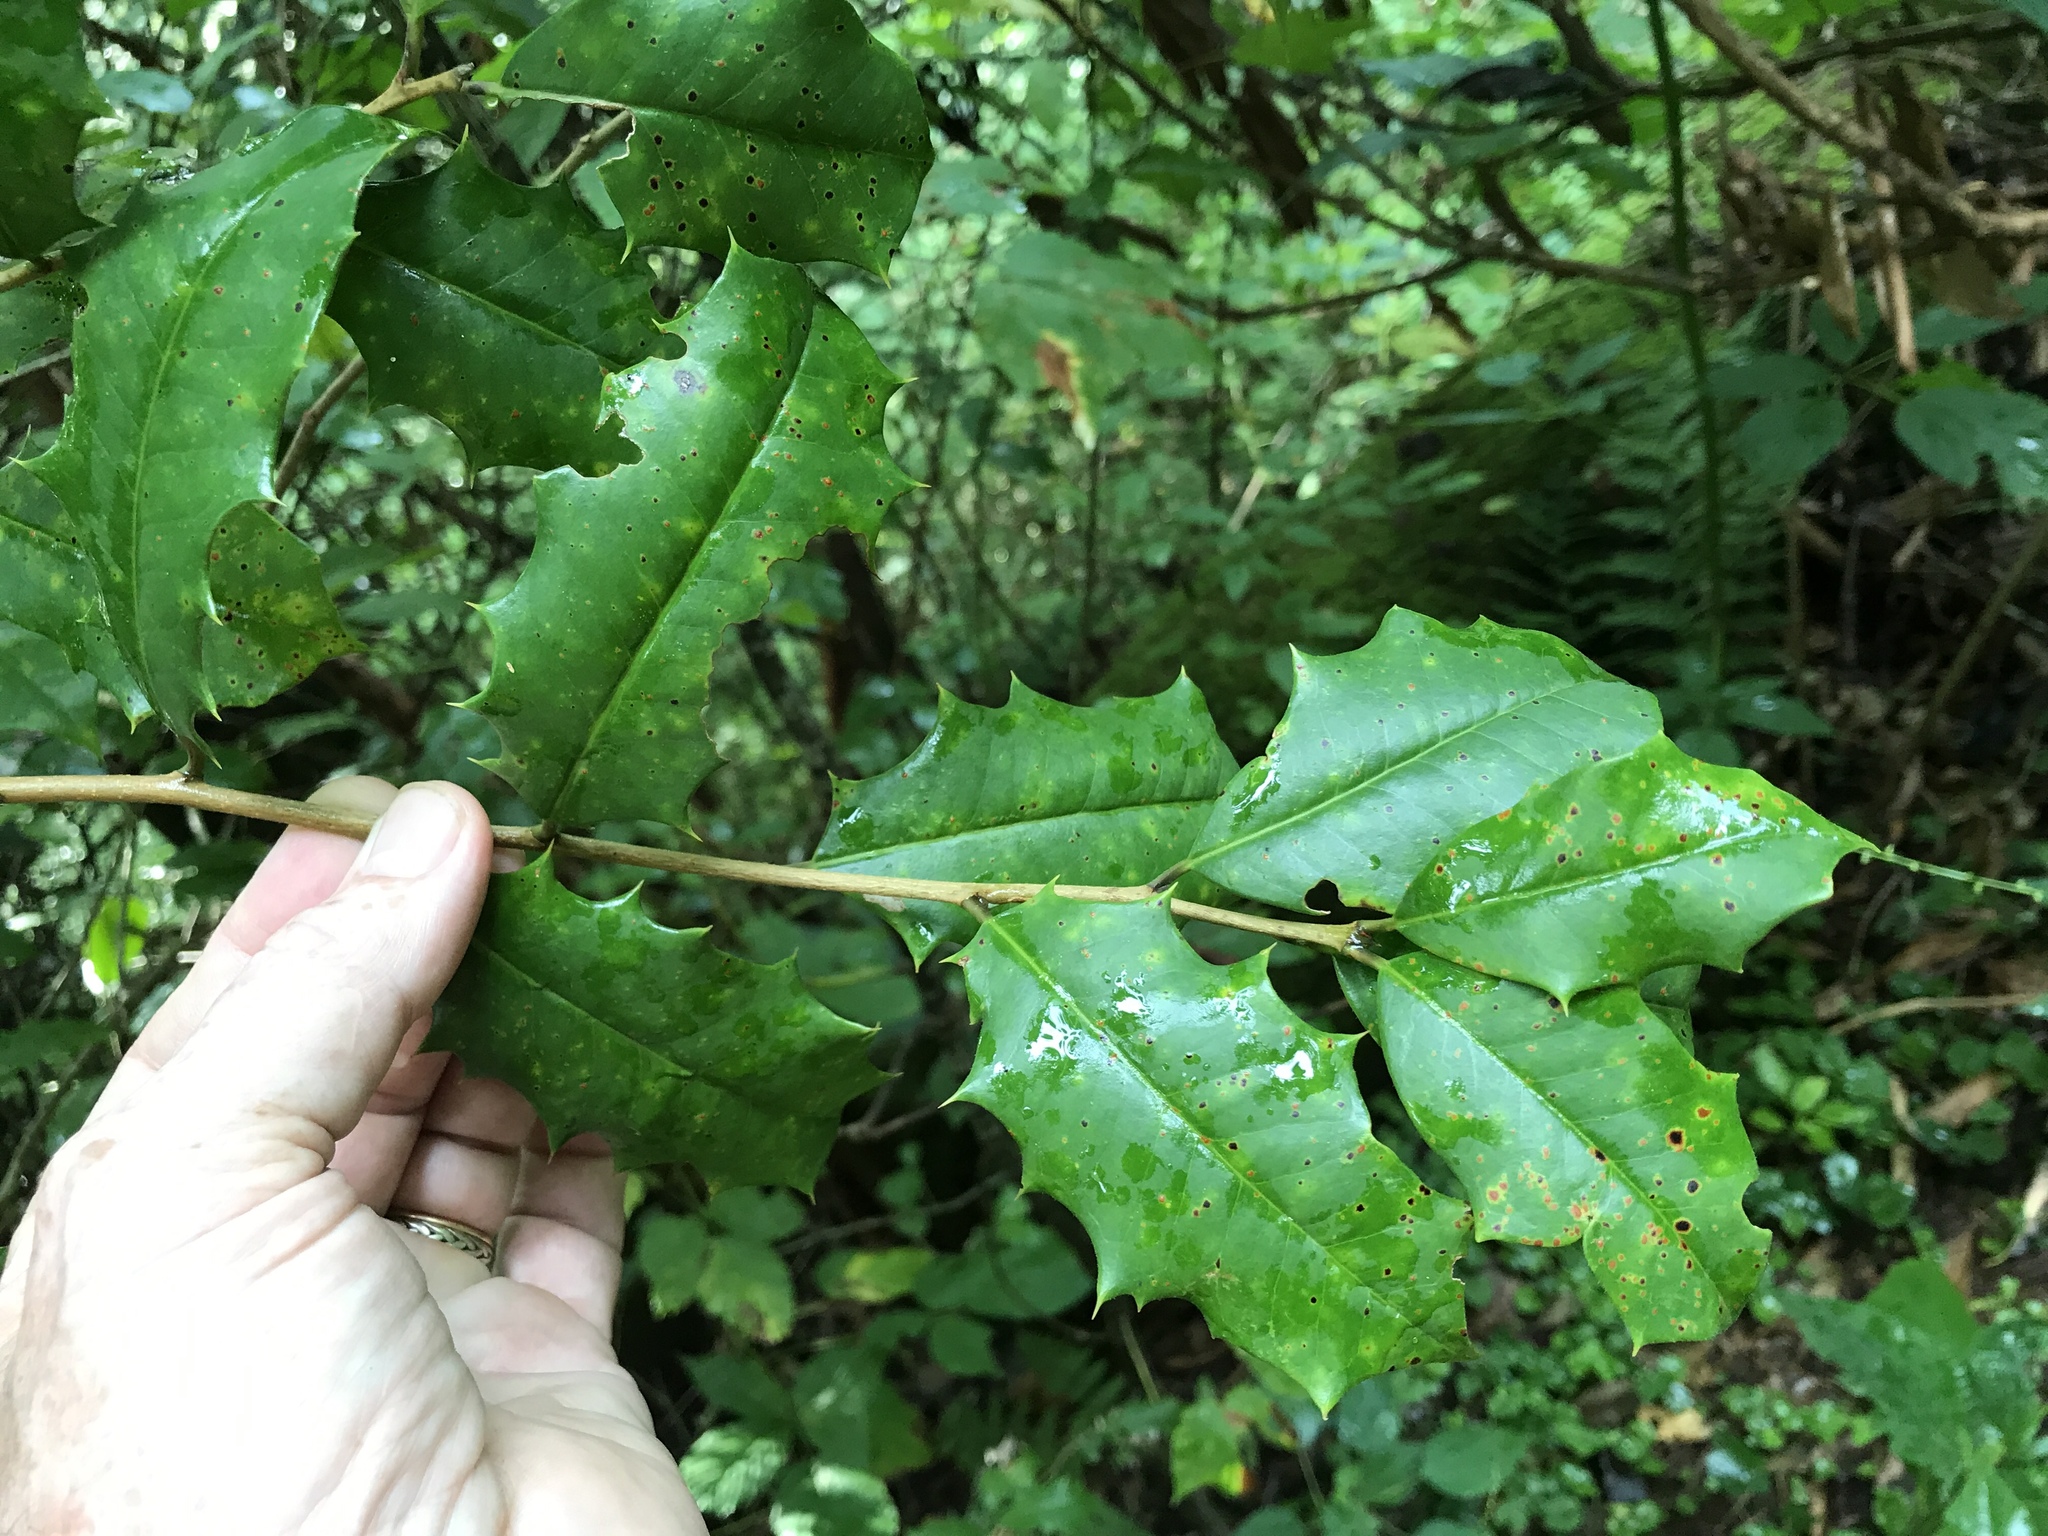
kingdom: Plantae
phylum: Tracheophyta
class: Magnoliopsida
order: Aquifoliales
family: Aquifoliaceae
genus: Ilex
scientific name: Ilex opaca
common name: American holly
